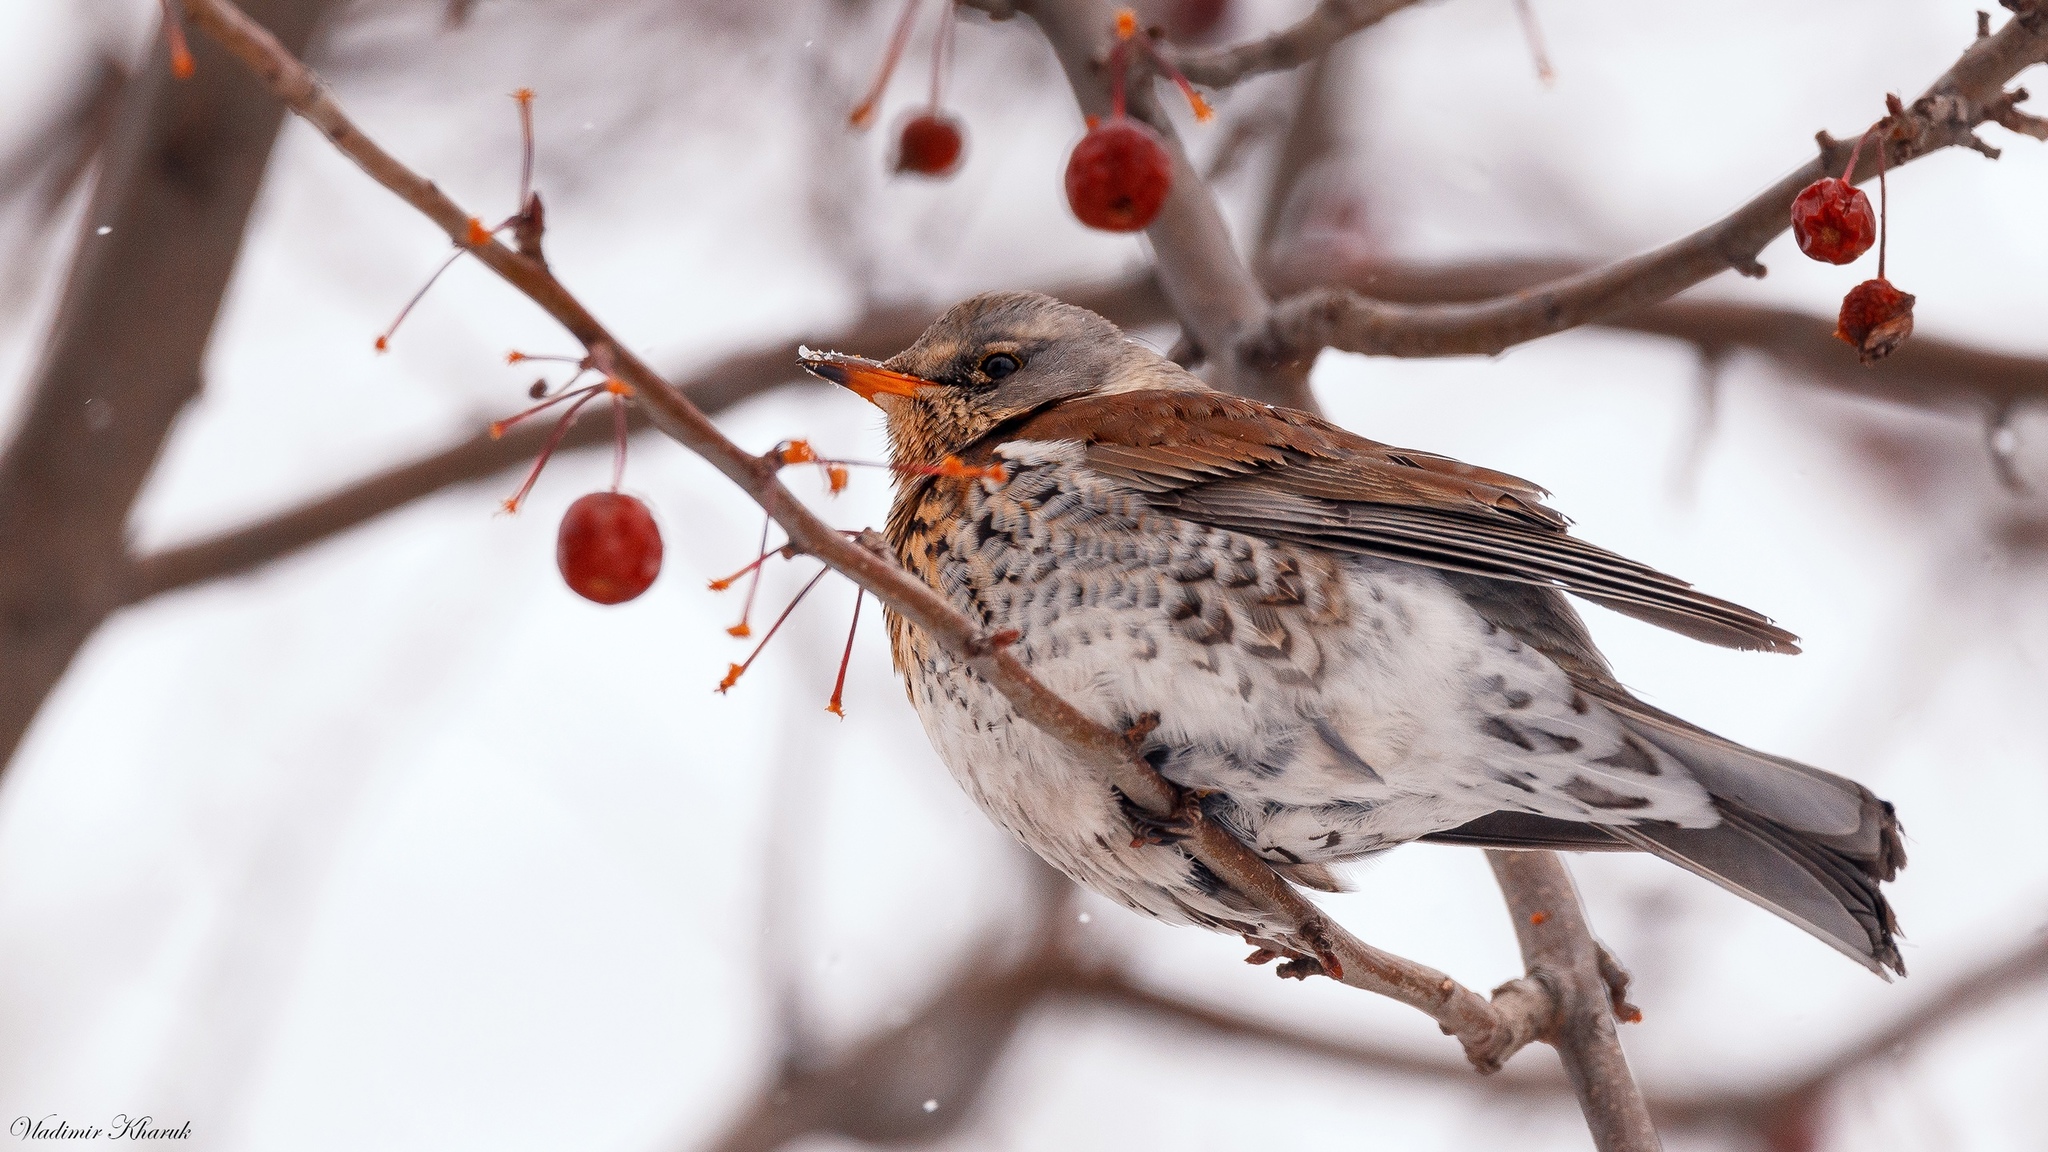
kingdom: Animalia
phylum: Chordata
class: Aves
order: Passeriformes
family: Turdidae
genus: Turdus
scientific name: Turdus pilaris
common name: Fieldfare
